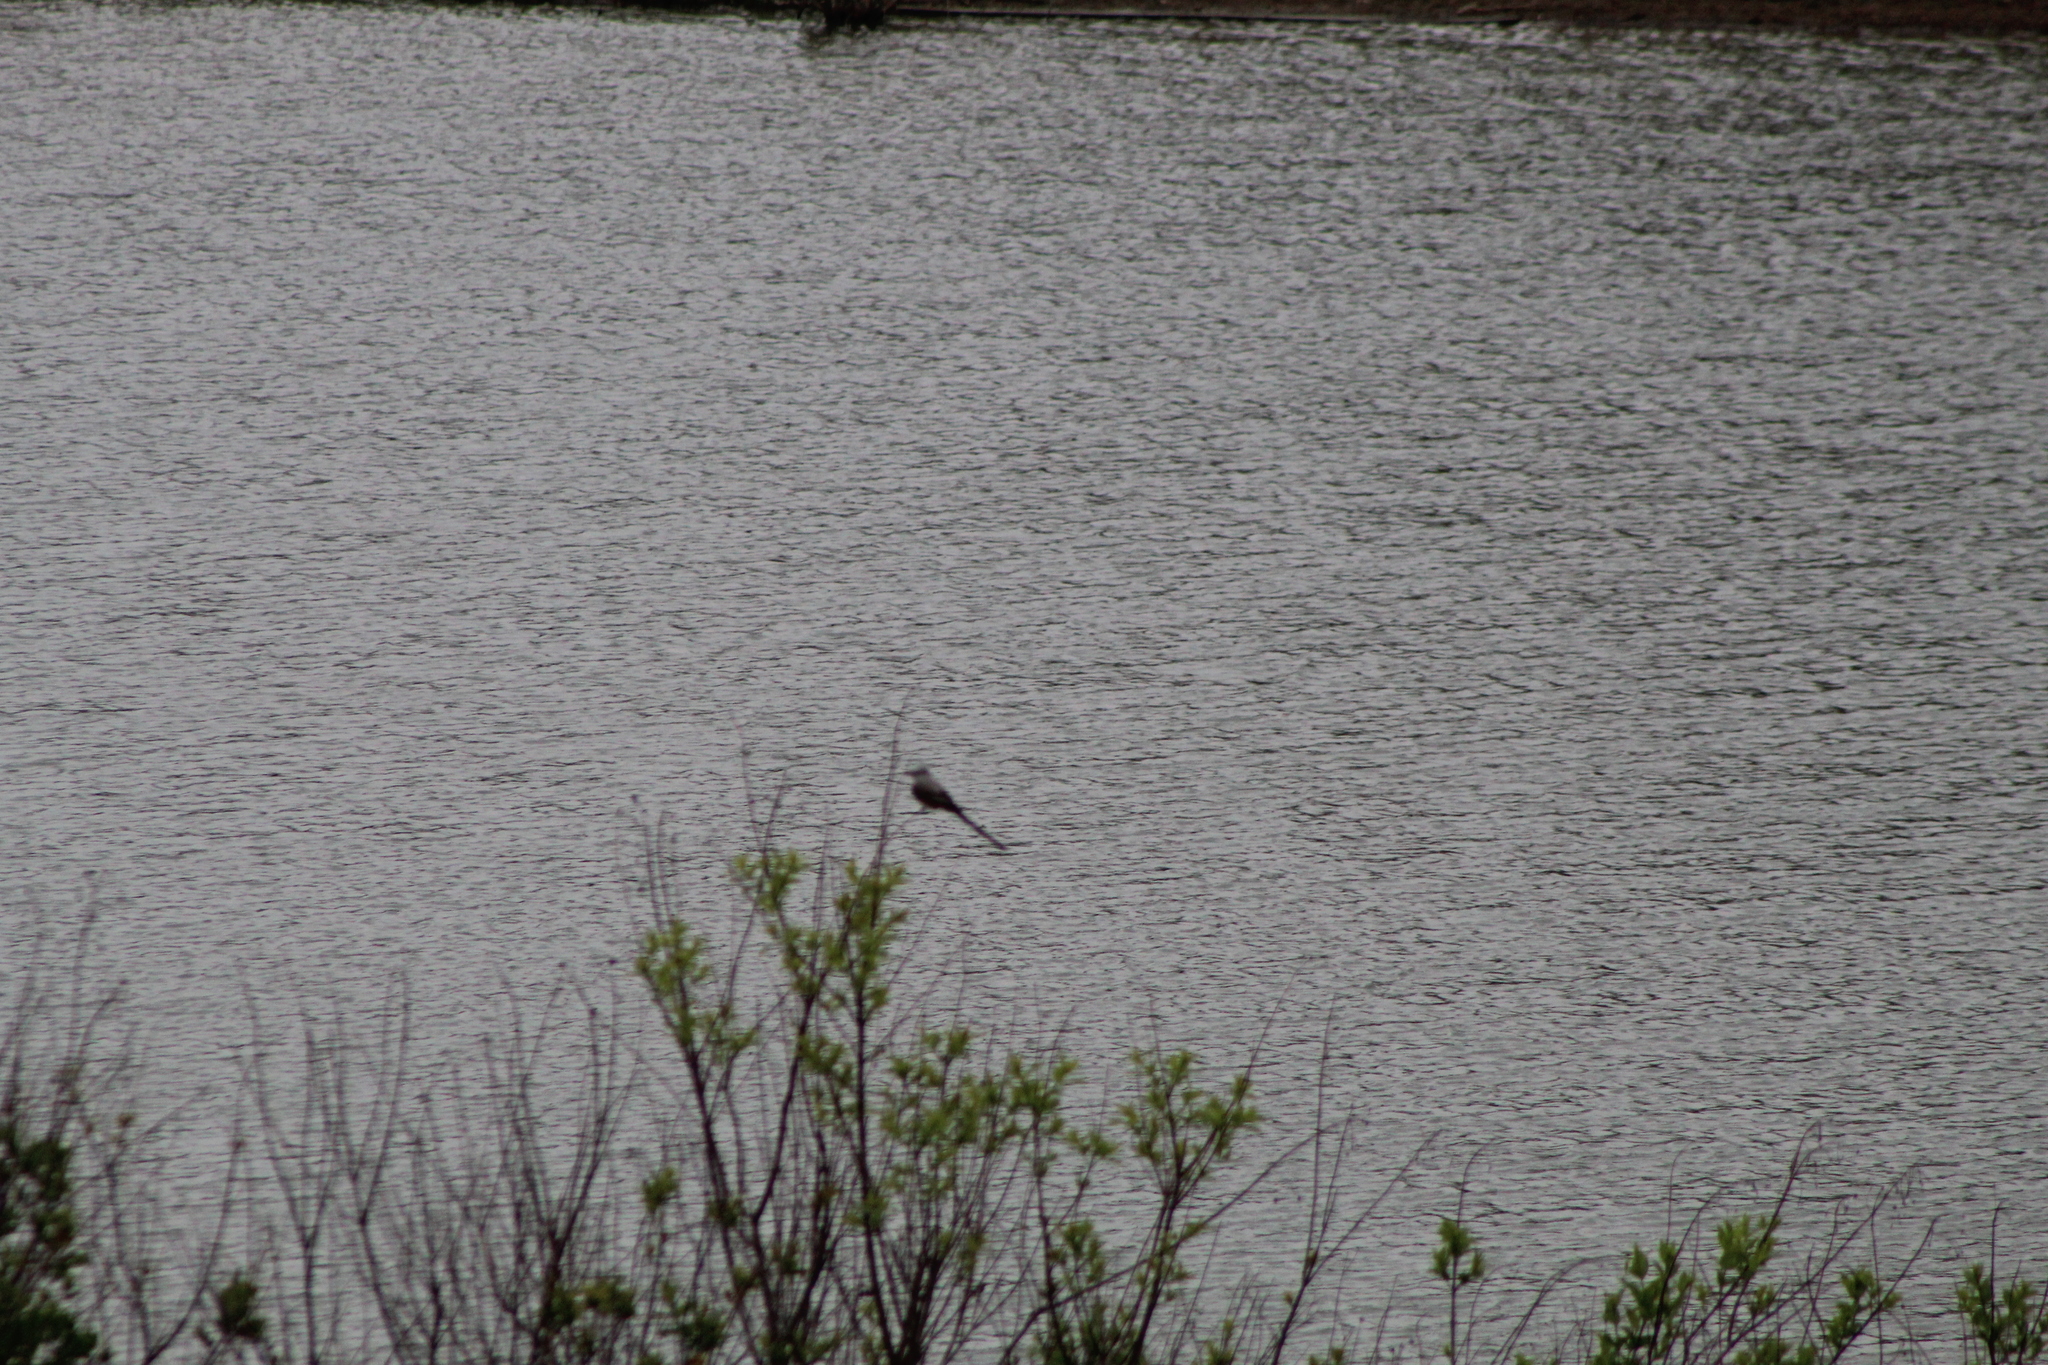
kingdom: Animalia
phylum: Chordata
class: Aves
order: Passeriformes
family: Tyrannidae
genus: Tyrannus
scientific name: Tyrannus forficatus
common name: Scissor-tailed flycatcher
